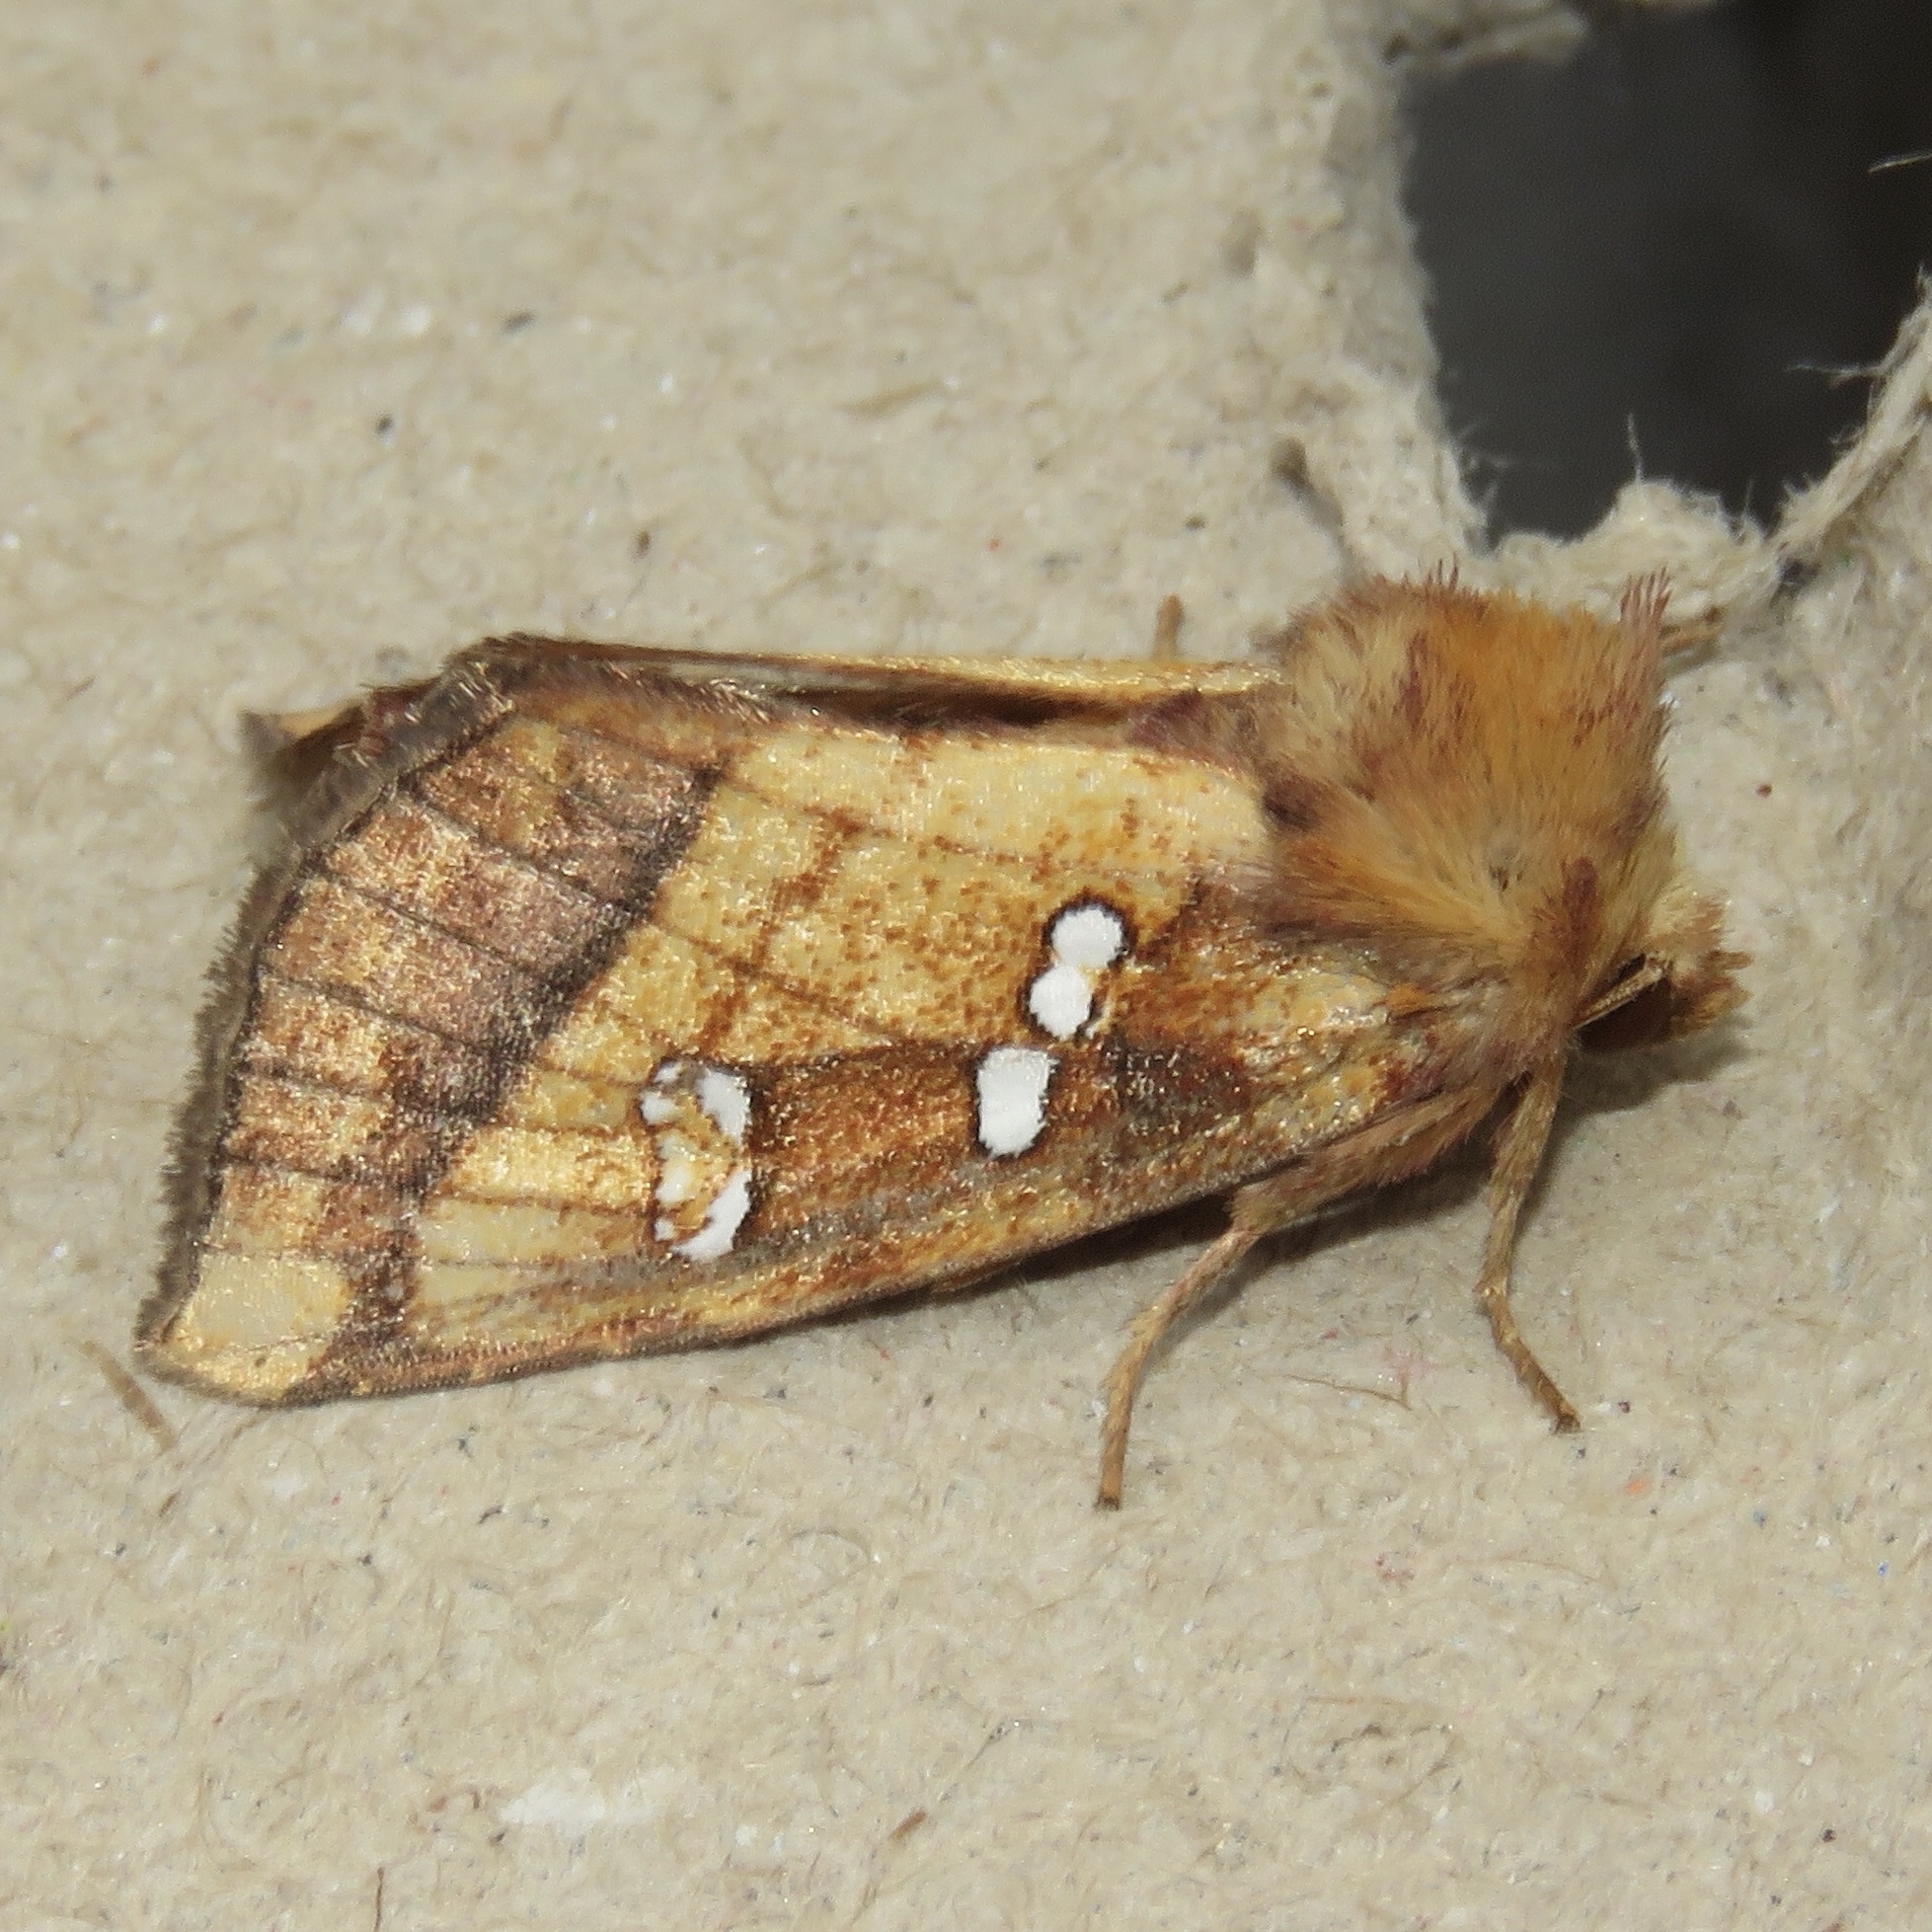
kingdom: Animalia
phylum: Arthropoda
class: Insecta
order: Lepidoptera
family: Noctuidae
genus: Papaipema
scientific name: Papaipema pterisii
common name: Bracken borer moth
